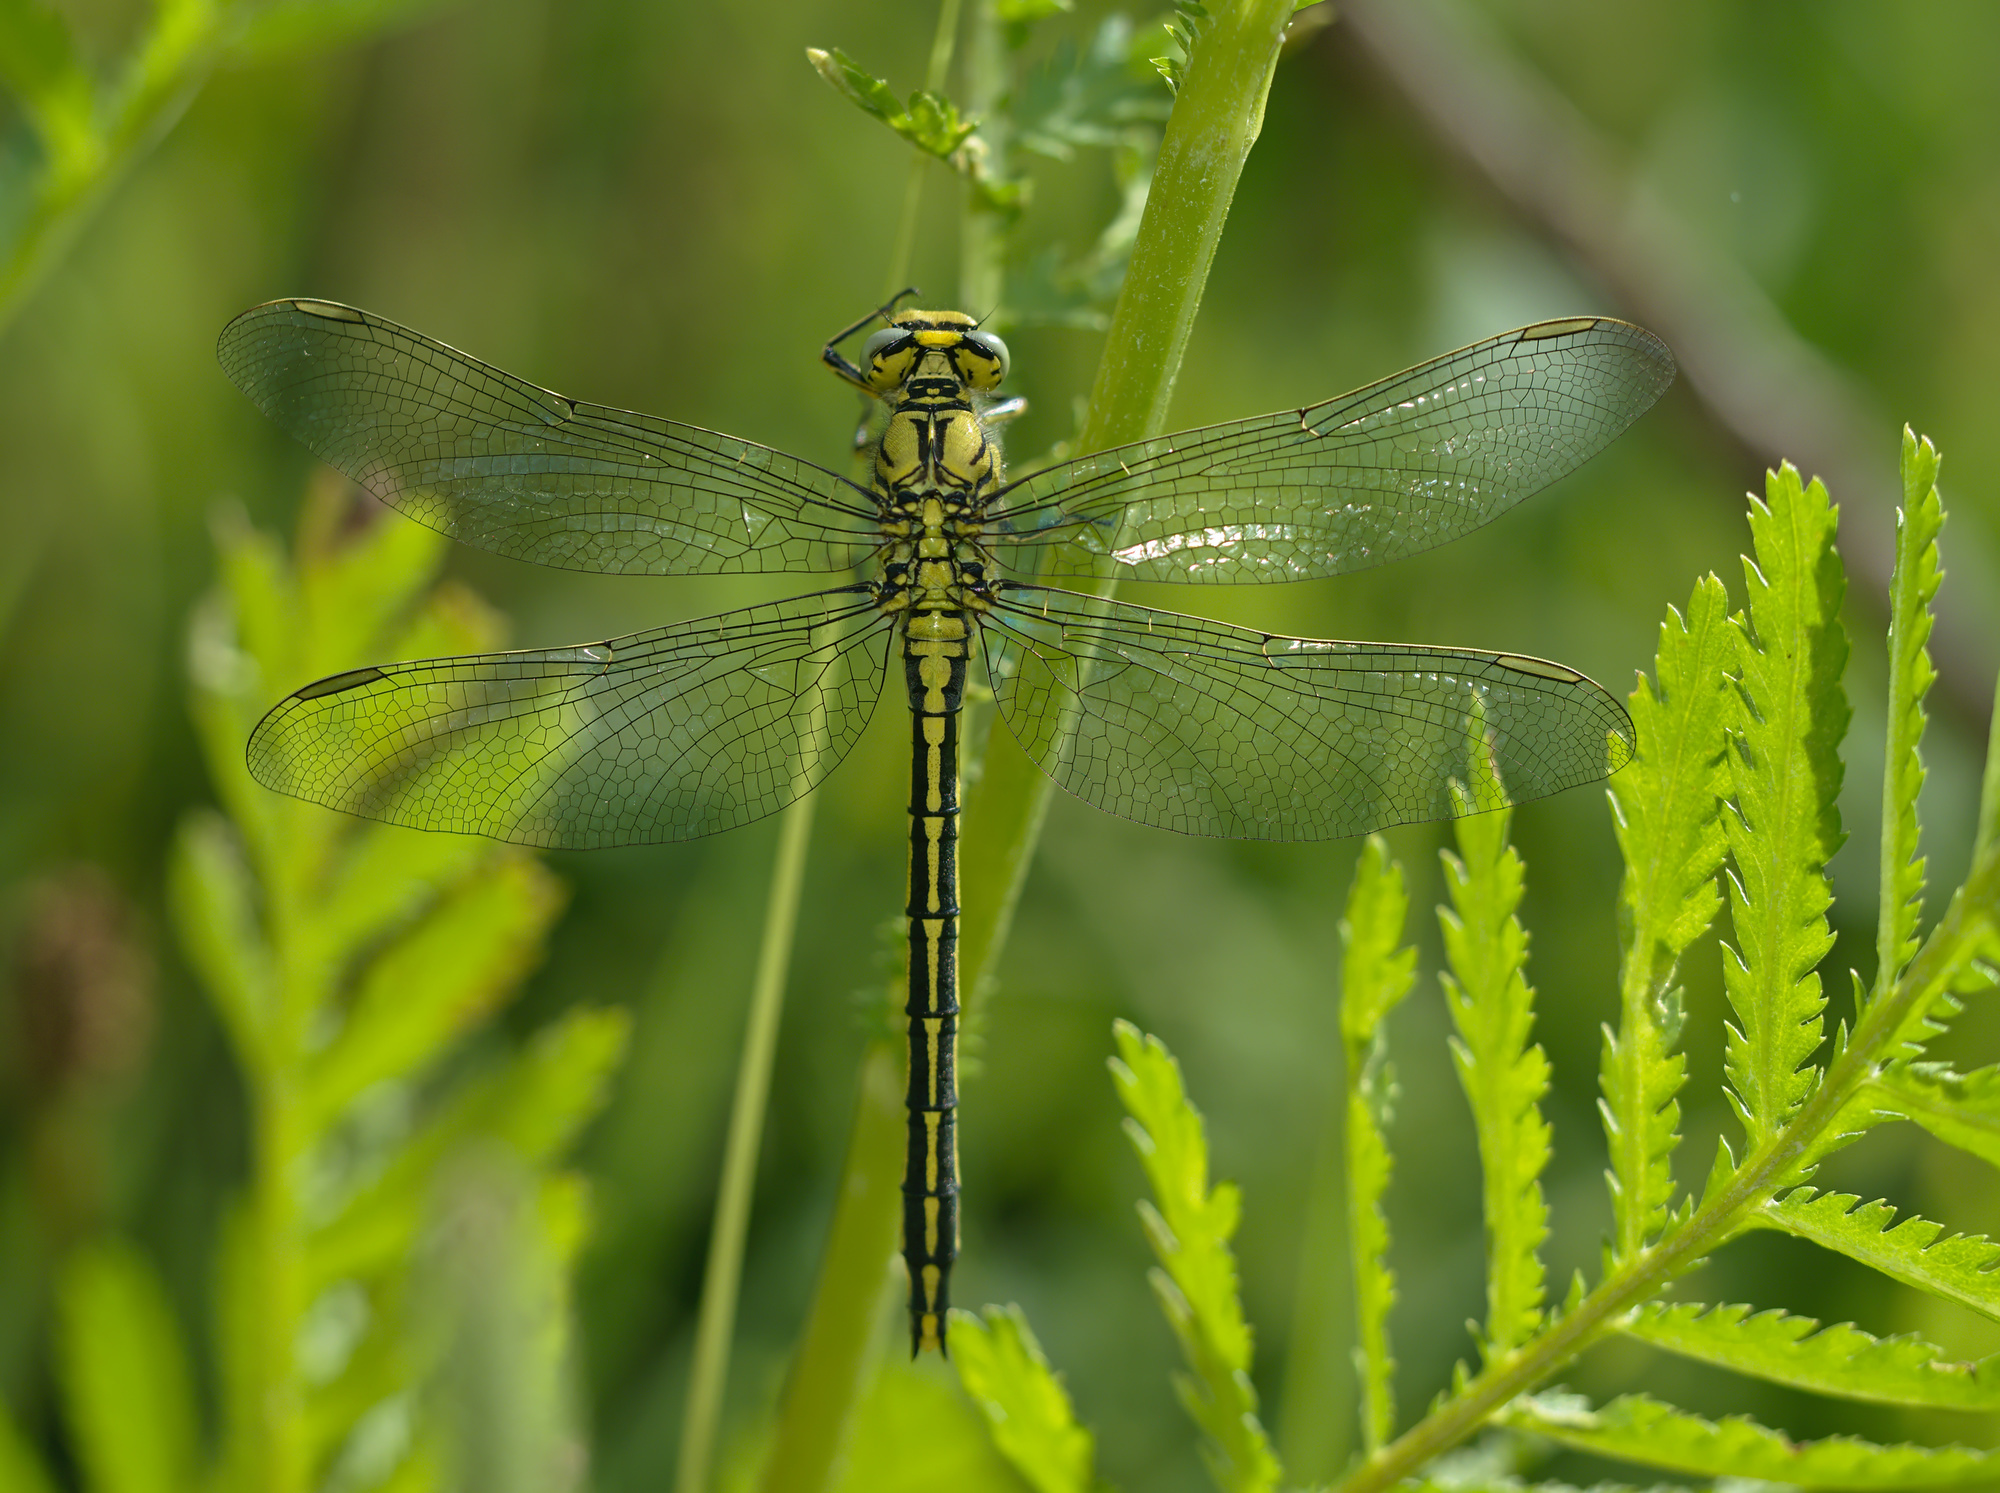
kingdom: Animalia
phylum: Arthropoda
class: Insecta
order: Odonata
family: Gomphidae
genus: Gomphus
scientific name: Gomphus pulchellus
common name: Western clubtail
